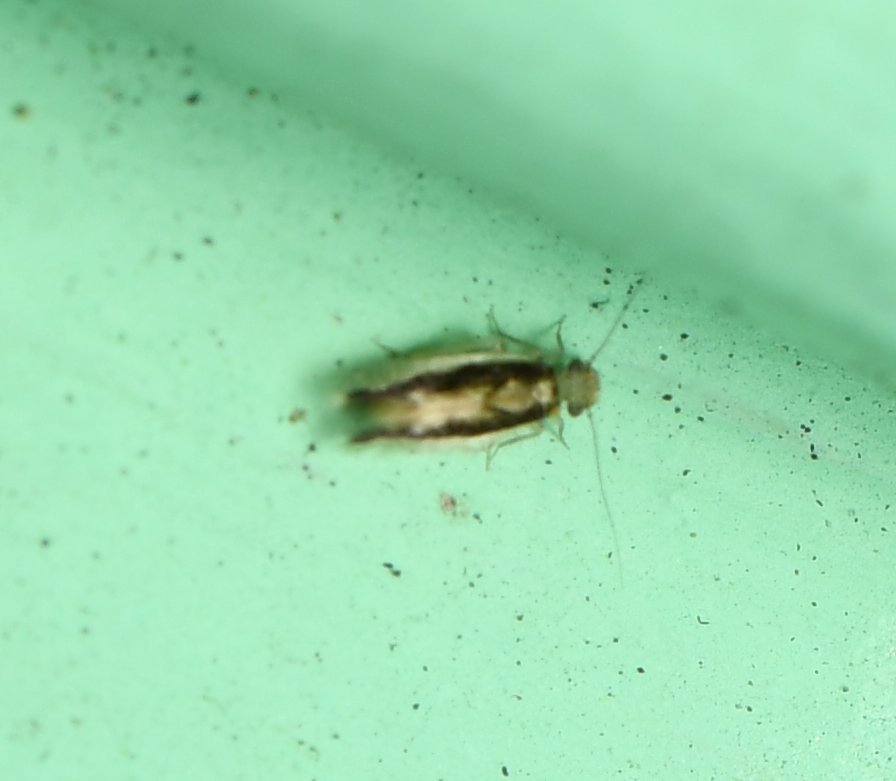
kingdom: Animalia
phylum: Arthropoda
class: Insecta
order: Psocodea
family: Lepidopsocidae
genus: Echmepteryx
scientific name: Echmepteryx madagascariensis
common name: Bark lice
